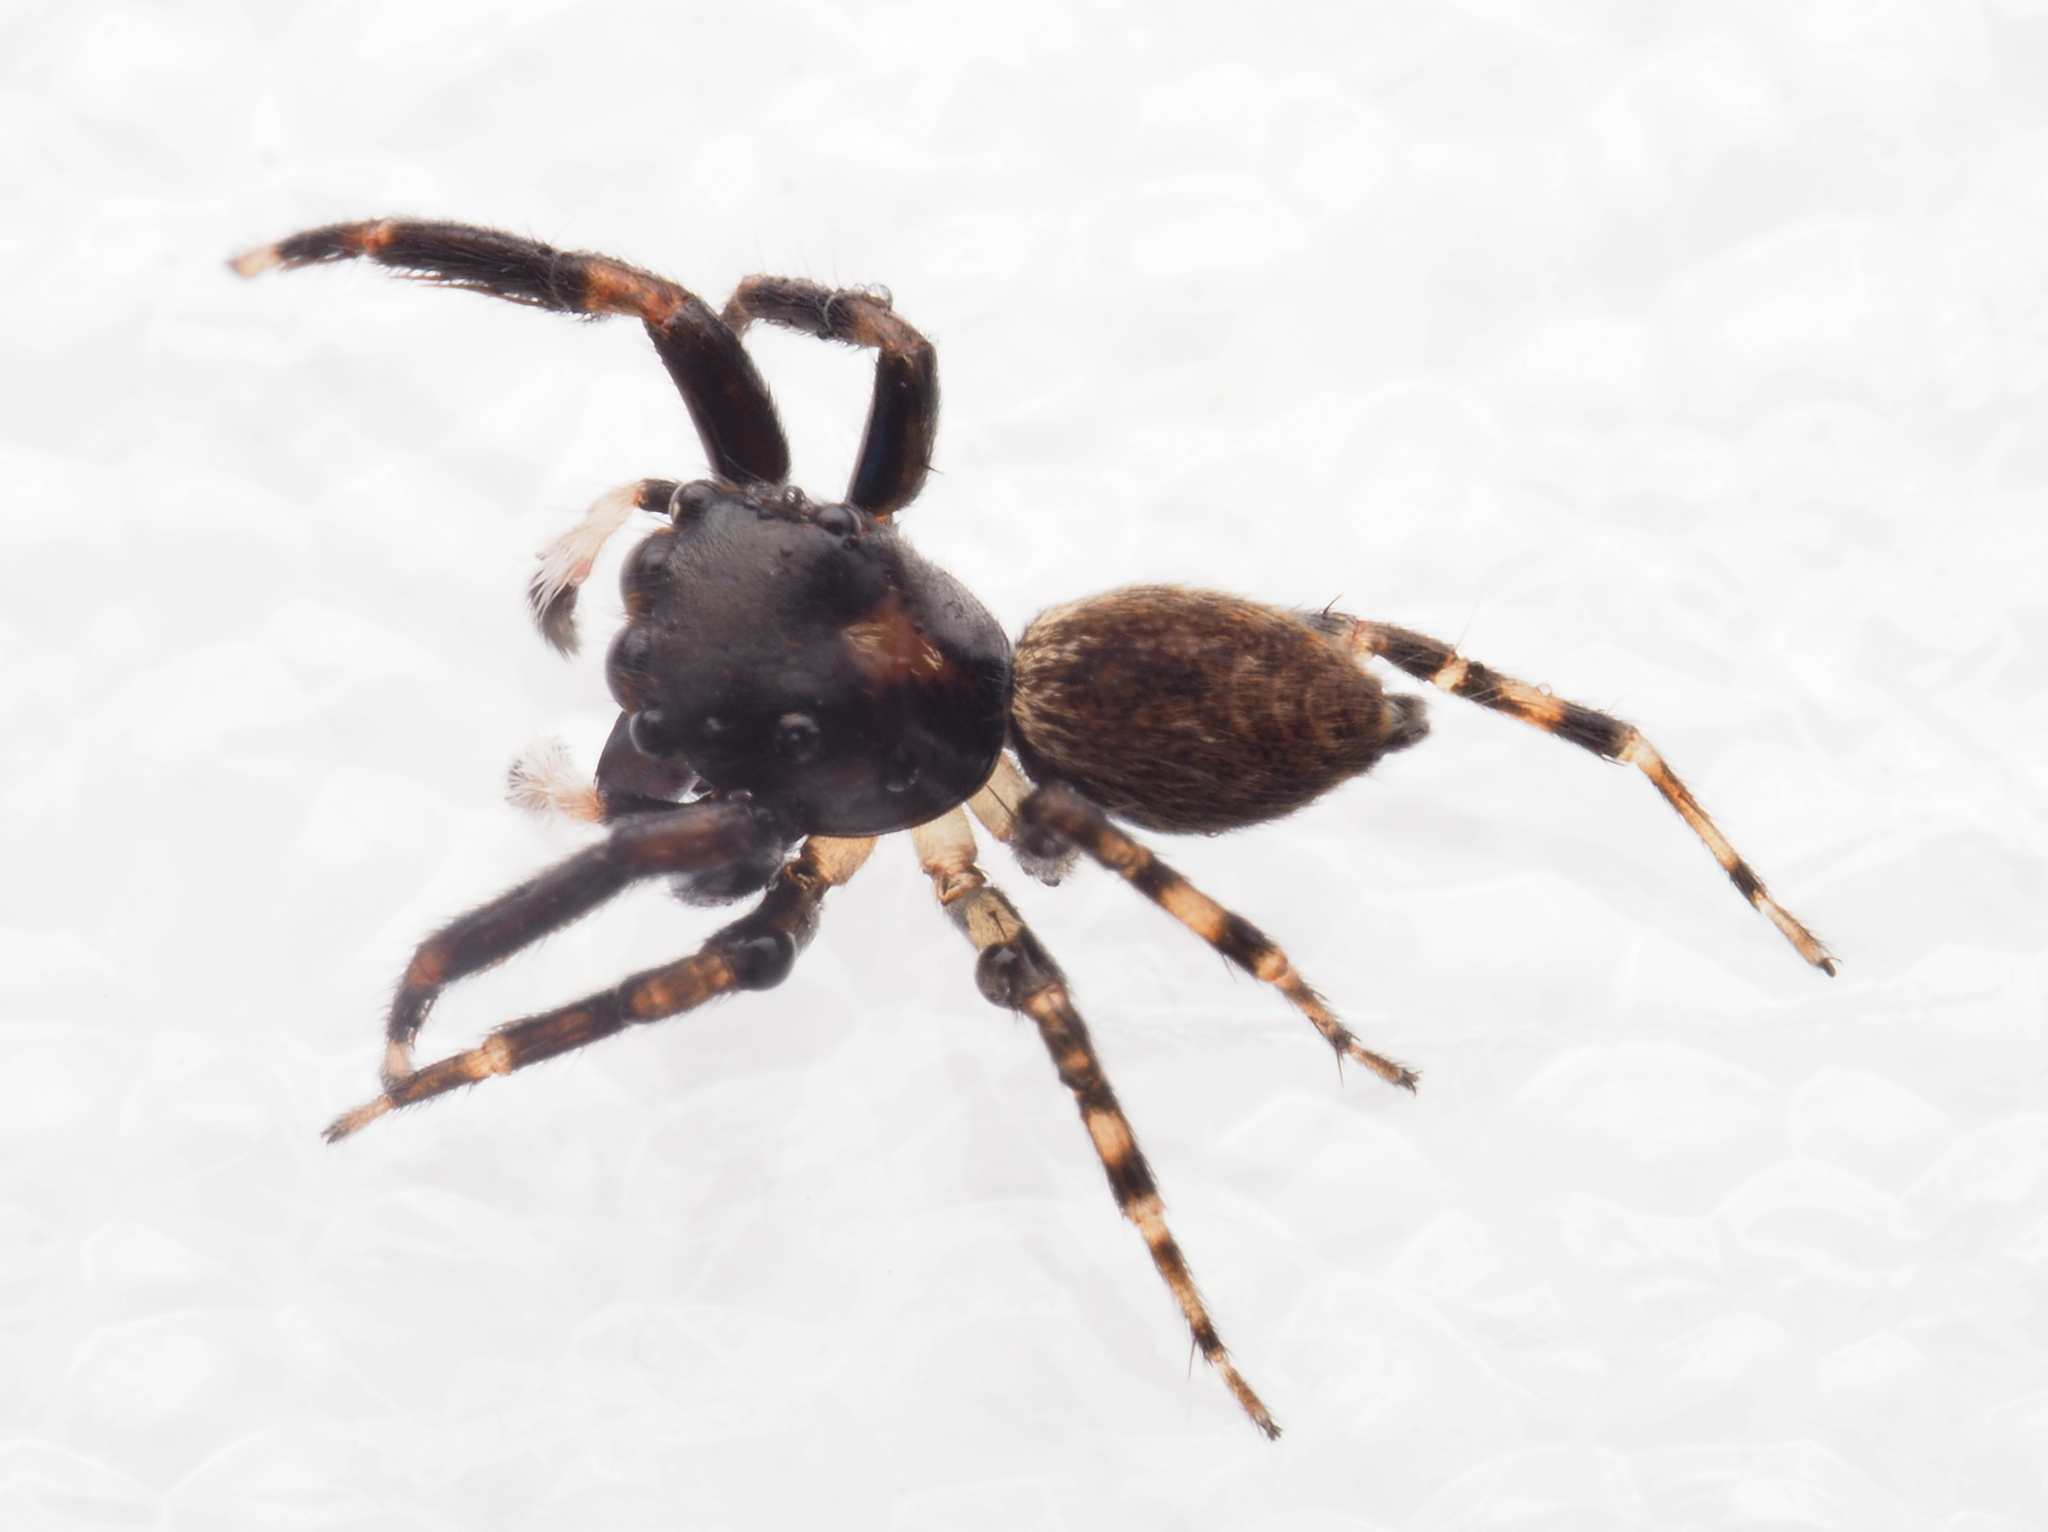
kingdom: Animalia
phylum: Arthropoda
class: Arachnida
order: Araneae
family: Salticidae
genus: Sondra
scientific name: Sondra nepenthicola
